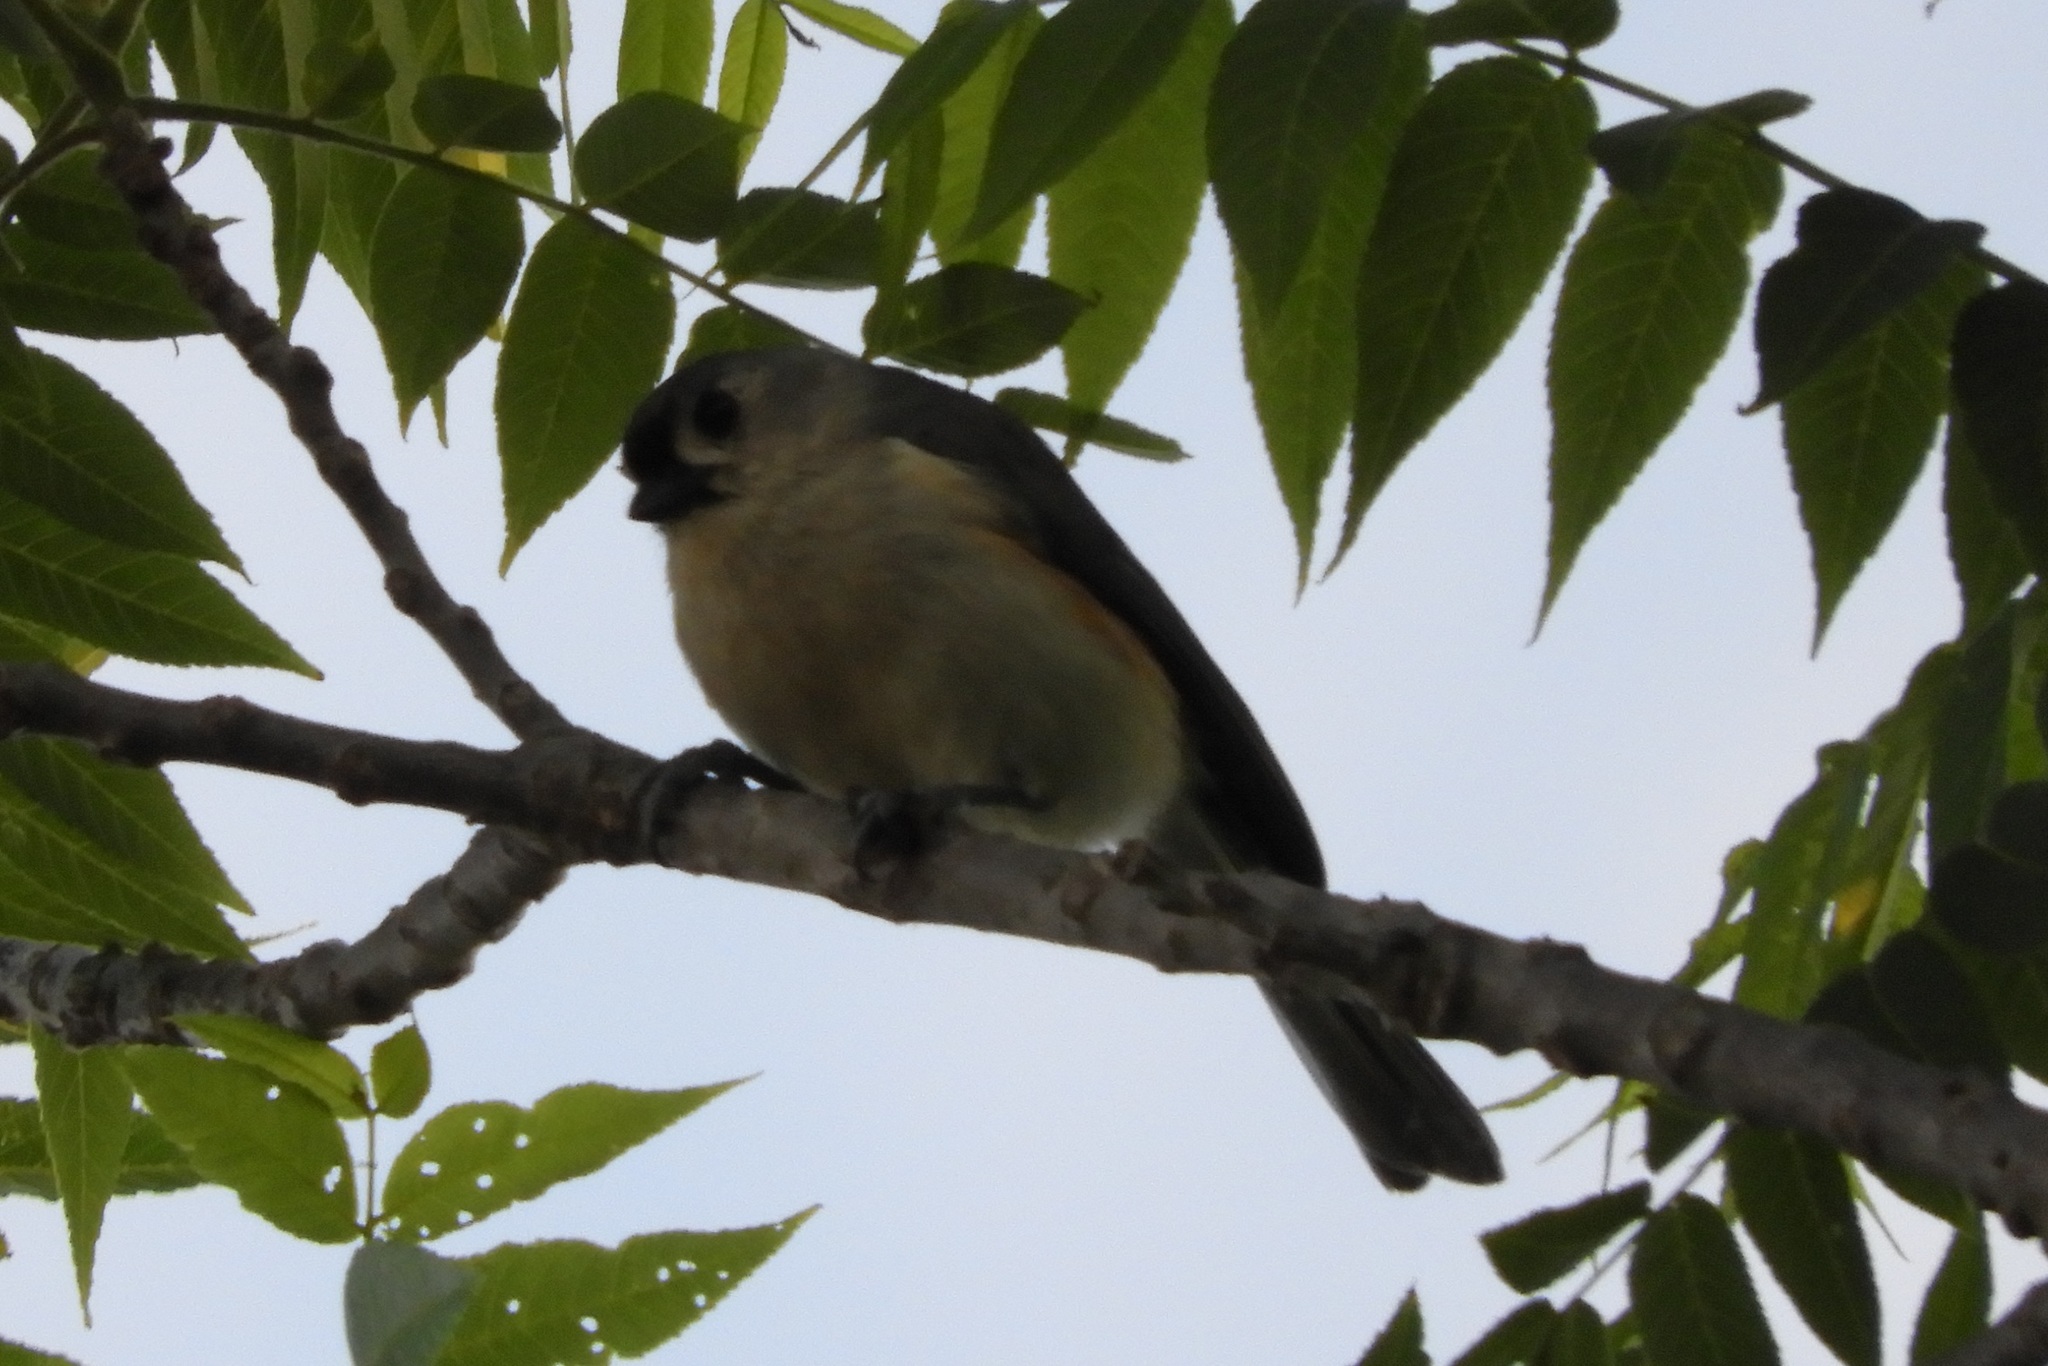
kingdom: Animalia
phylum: Chordata
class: Aves
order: Passeriformes
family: Paridae
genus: Baeolophus
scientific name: Baeolophus bicolor
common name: Tufted titmouse
